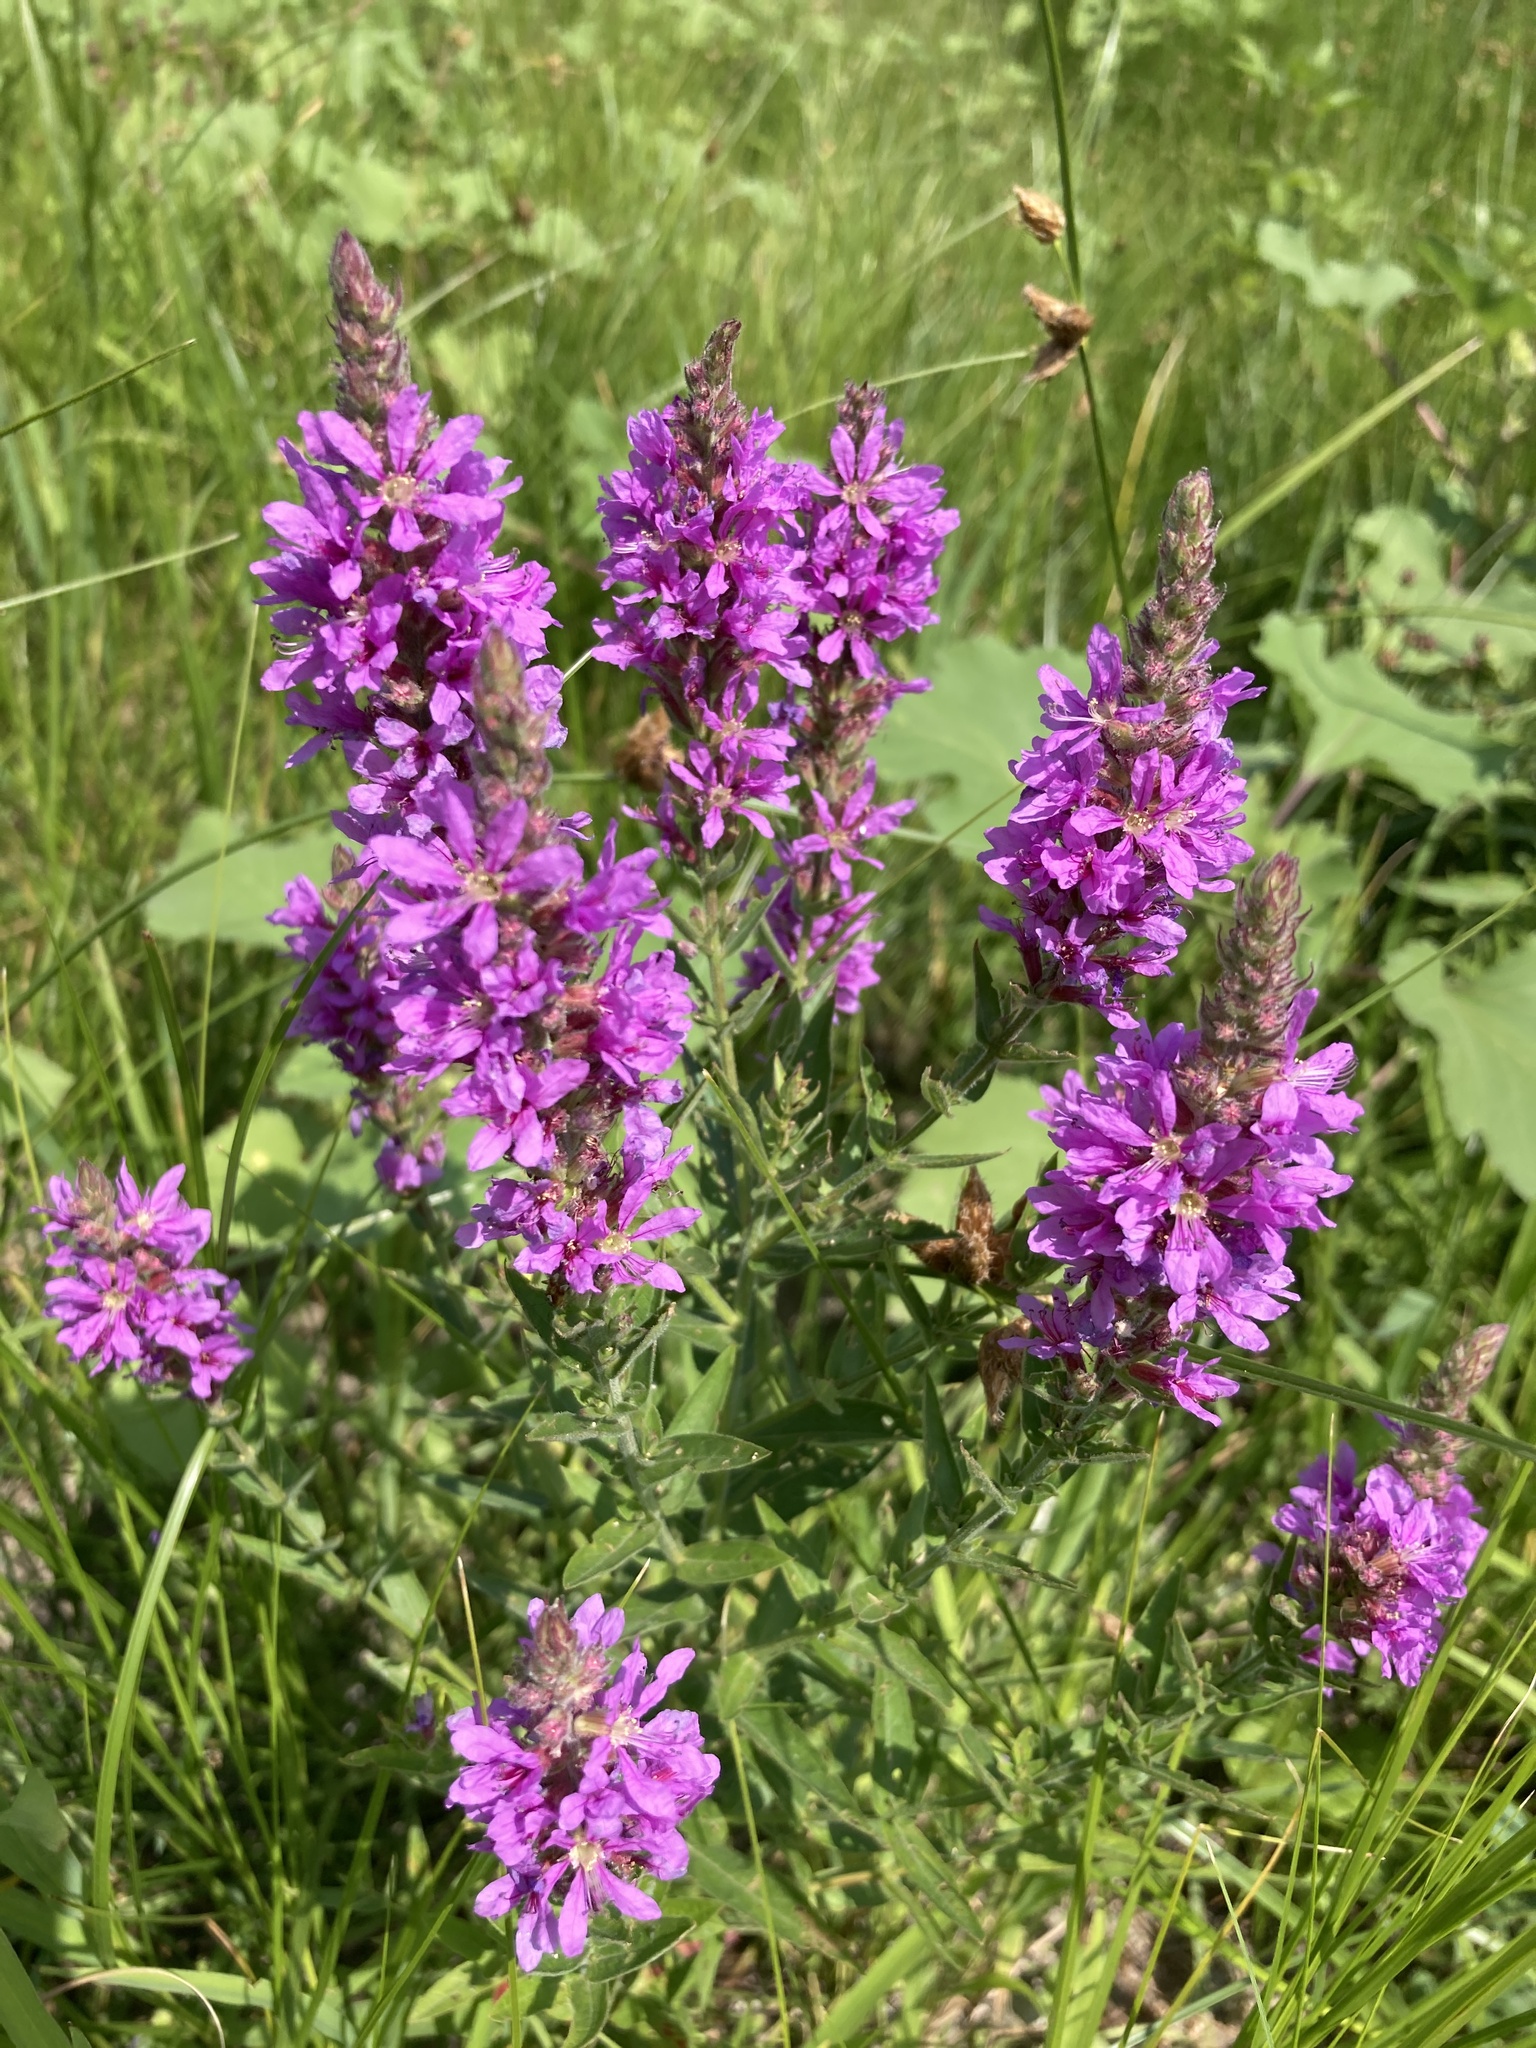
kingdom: Plantae
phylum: Tracheophyta
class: Magnoliopsida
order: Myrtales
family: Lythraceae
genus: Lythrum
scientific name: Lythrum salicaria
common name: Purple loosestrife
